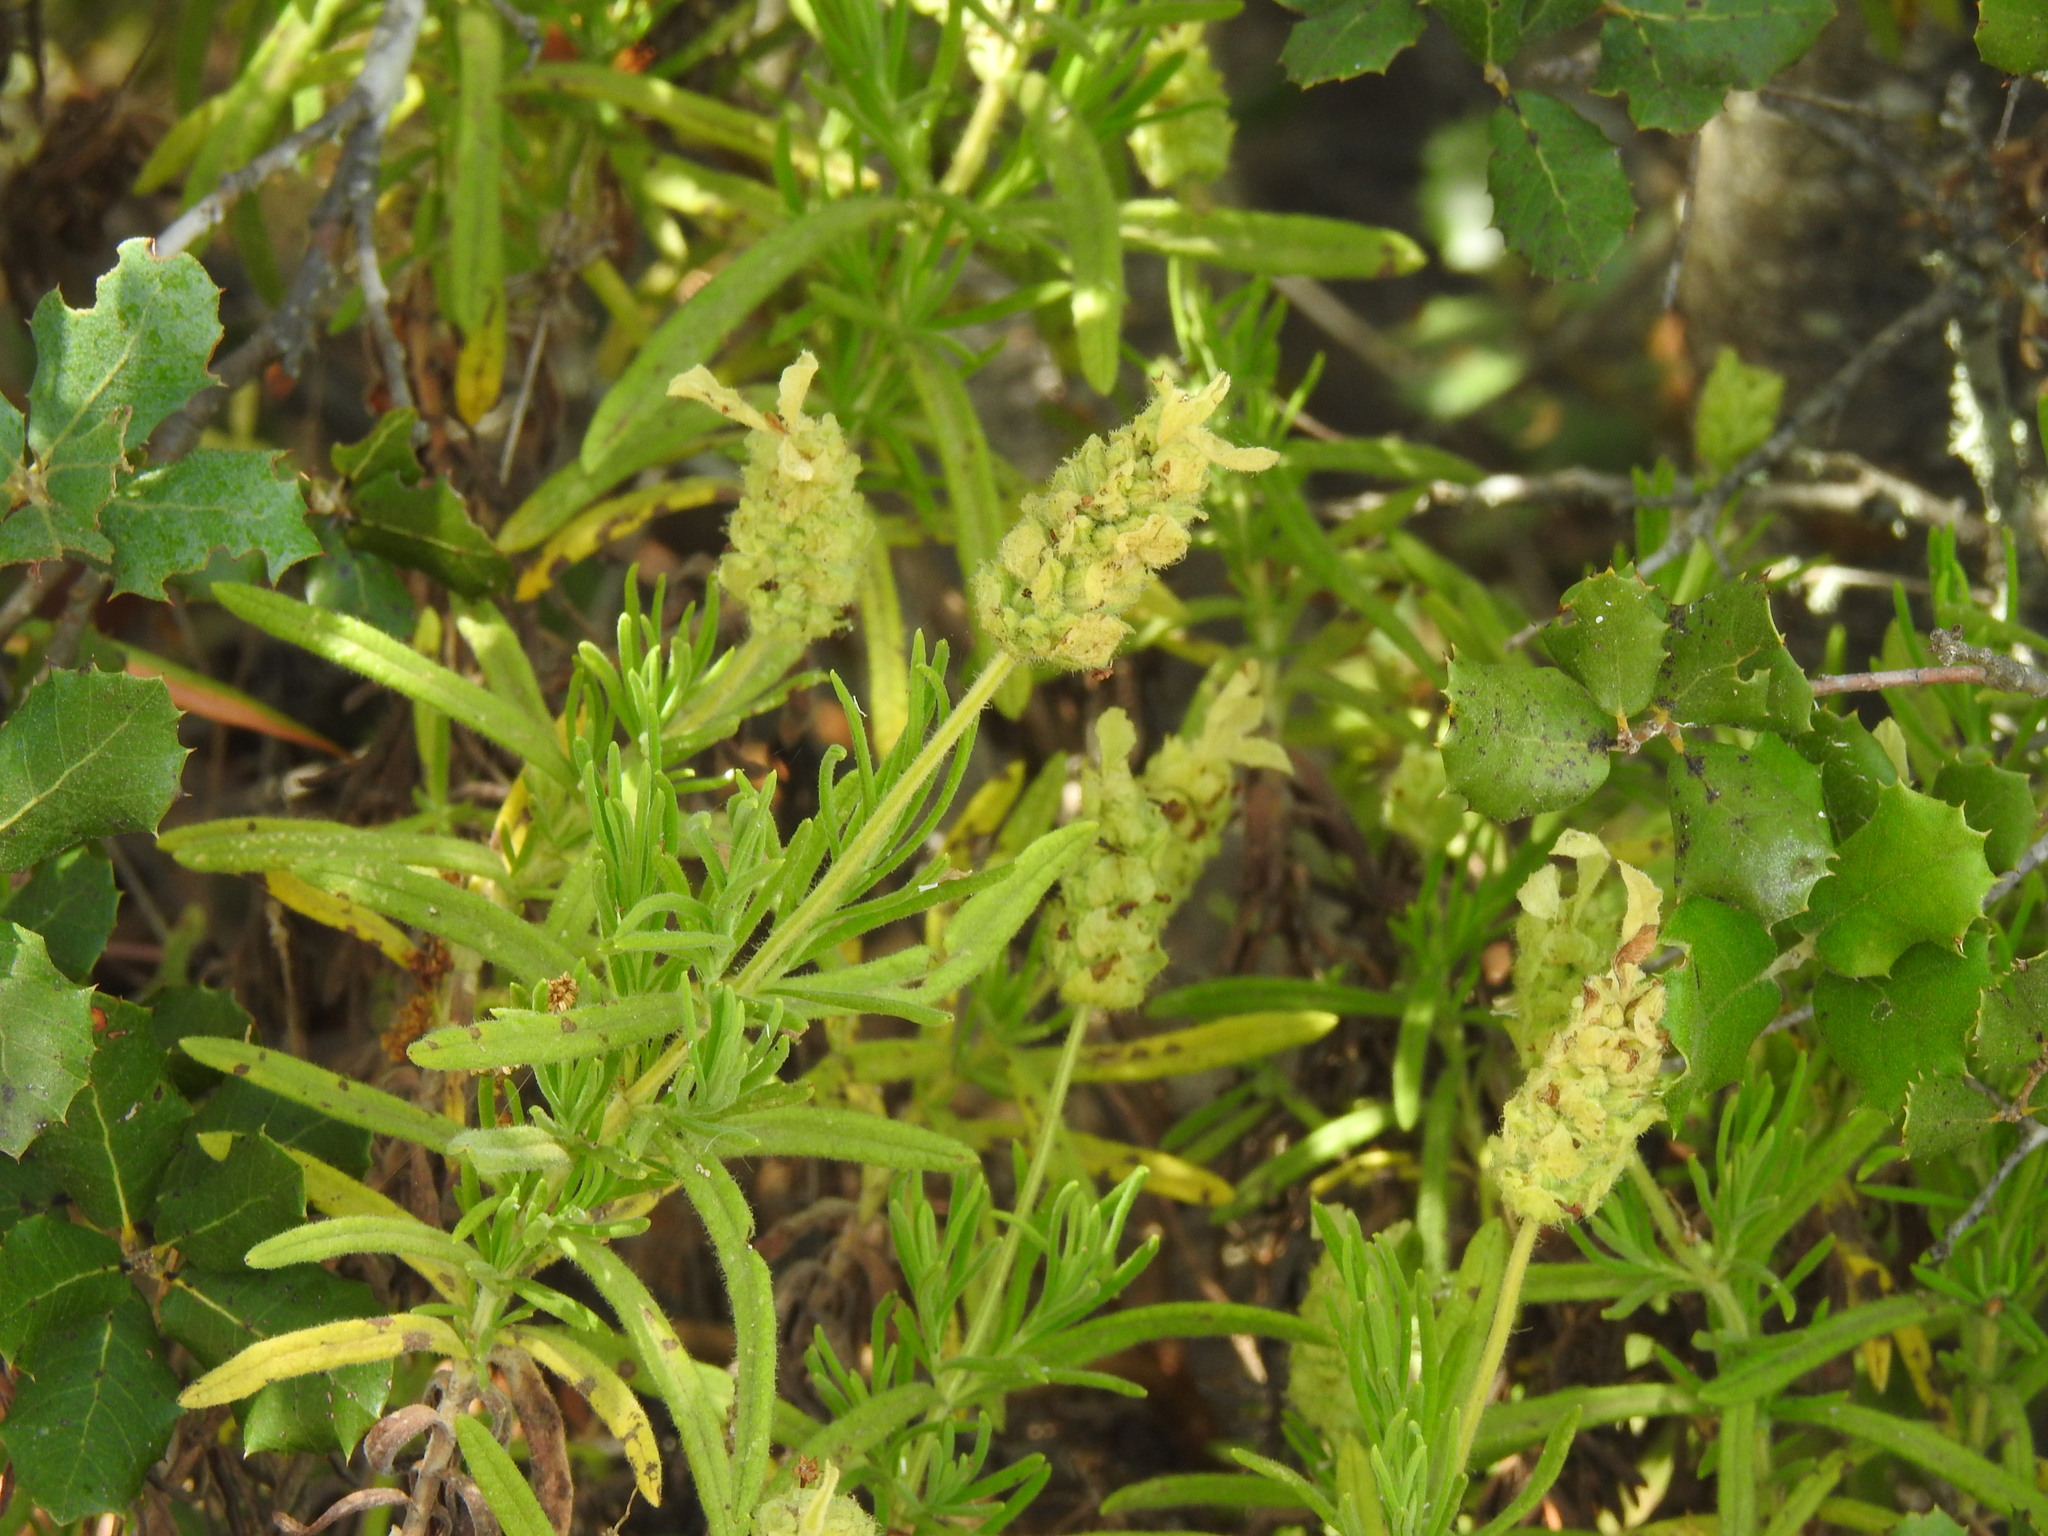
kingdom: Plantae
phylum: Tracheophyta
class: Magnoliopsida
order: Lamiales
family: Lamiaceae
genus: Lavandula
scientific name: Lavandula viridis
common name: Green spanish lavender
